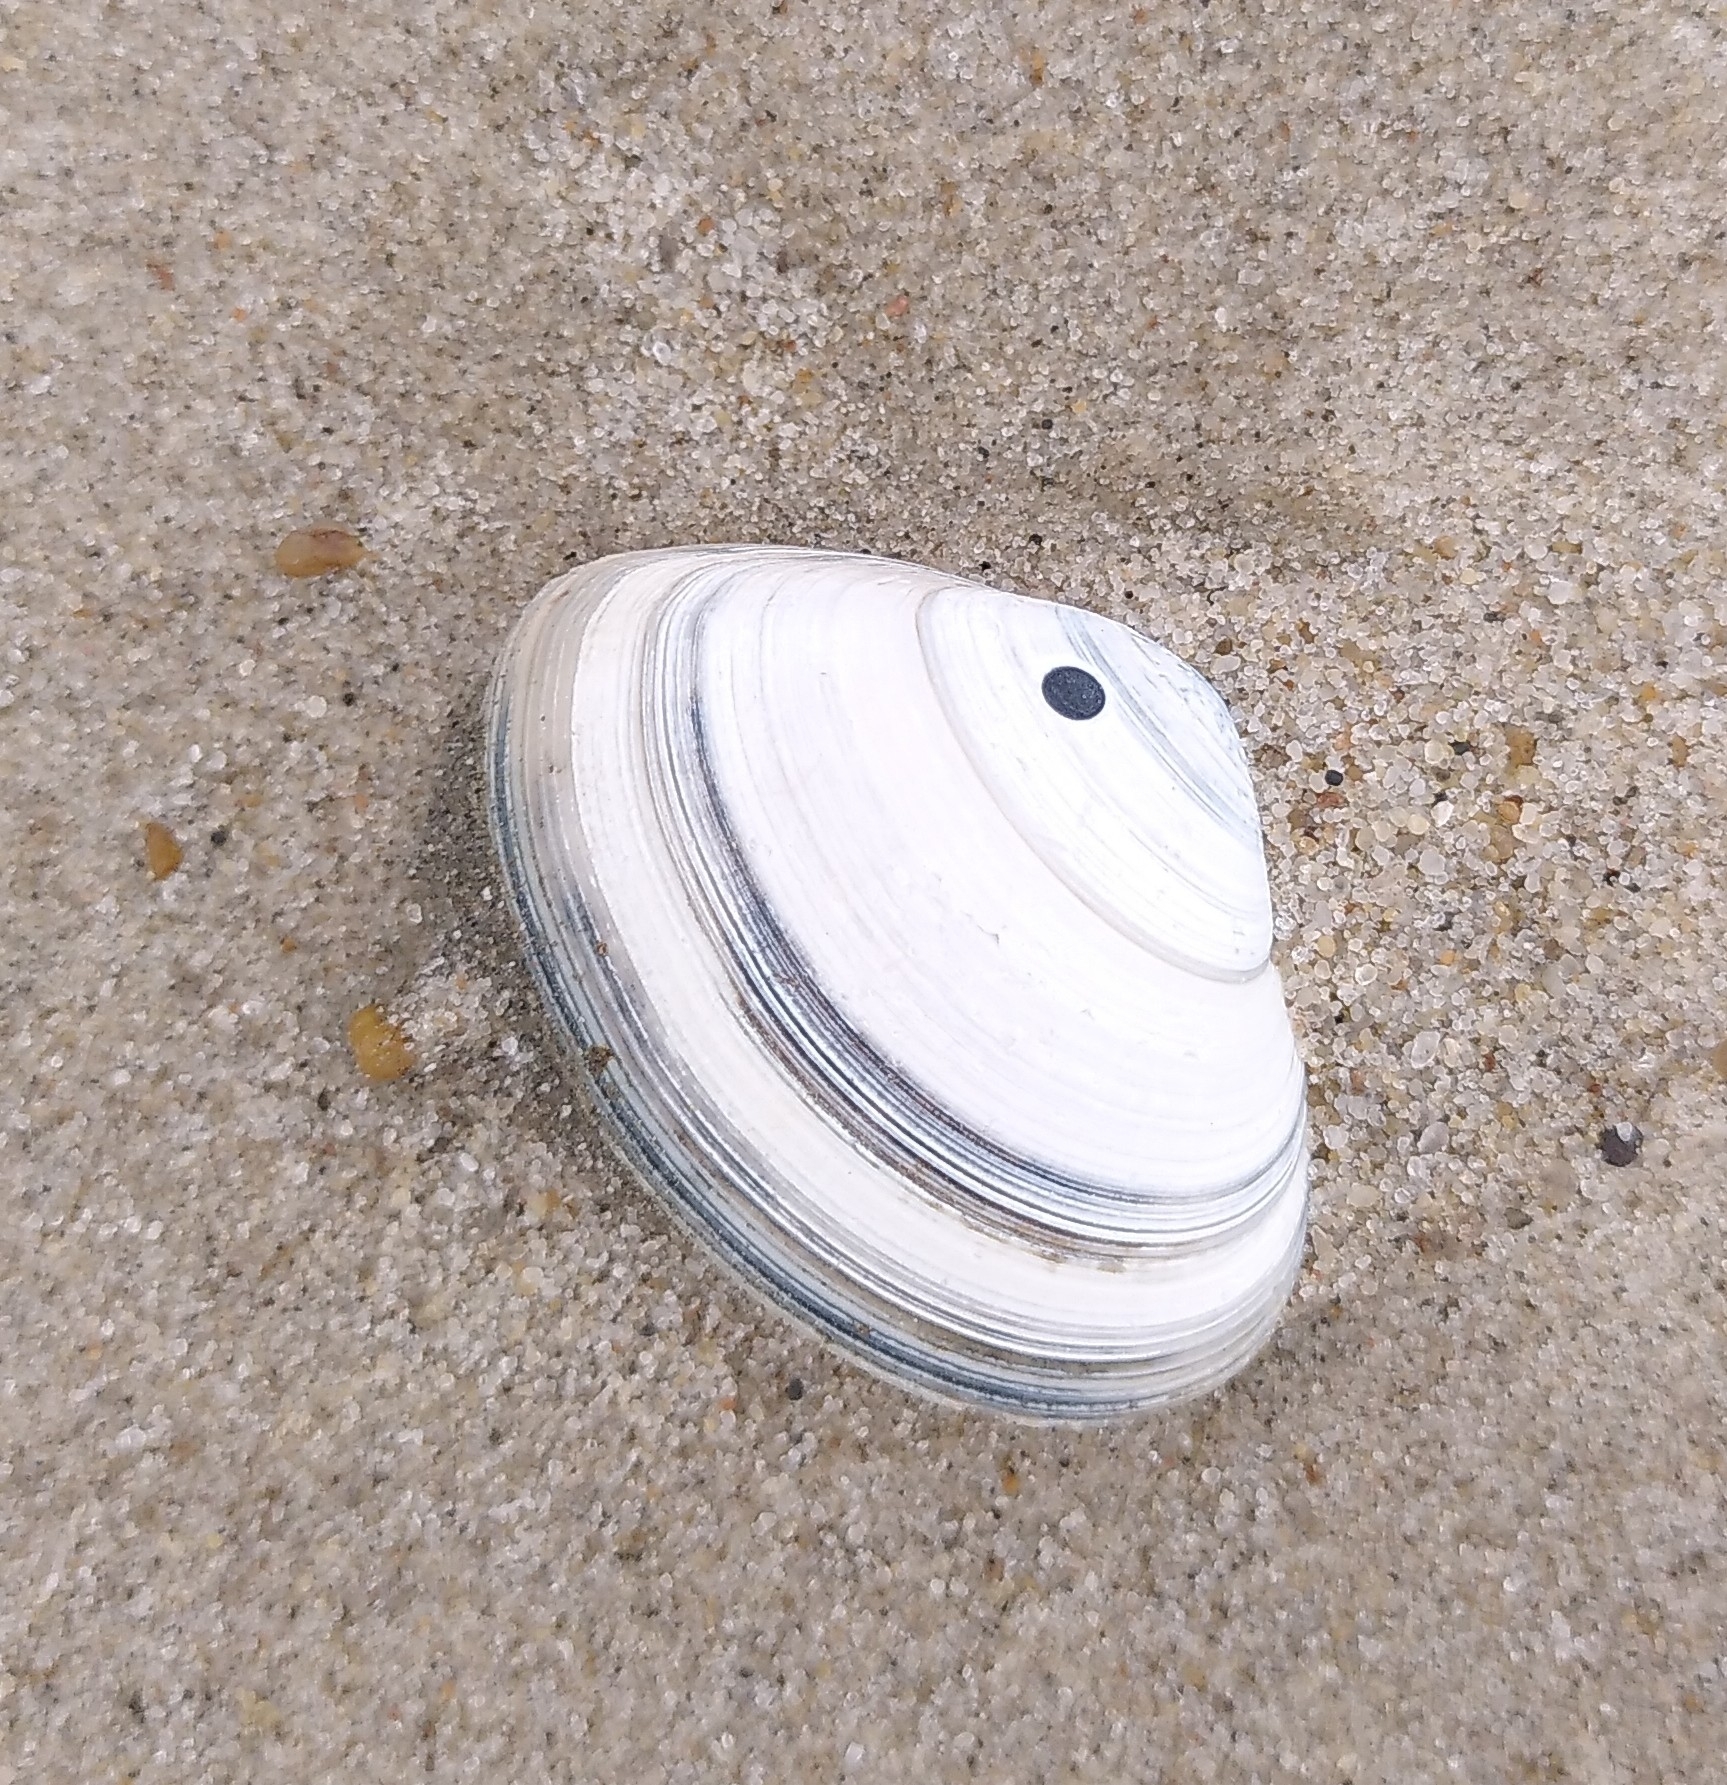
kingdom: Animalia
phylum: Mollusca
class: Bivalvia
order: Venerida
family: Mactridae
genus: Spisula
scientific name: Spisula solida
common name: Thick trough shell
